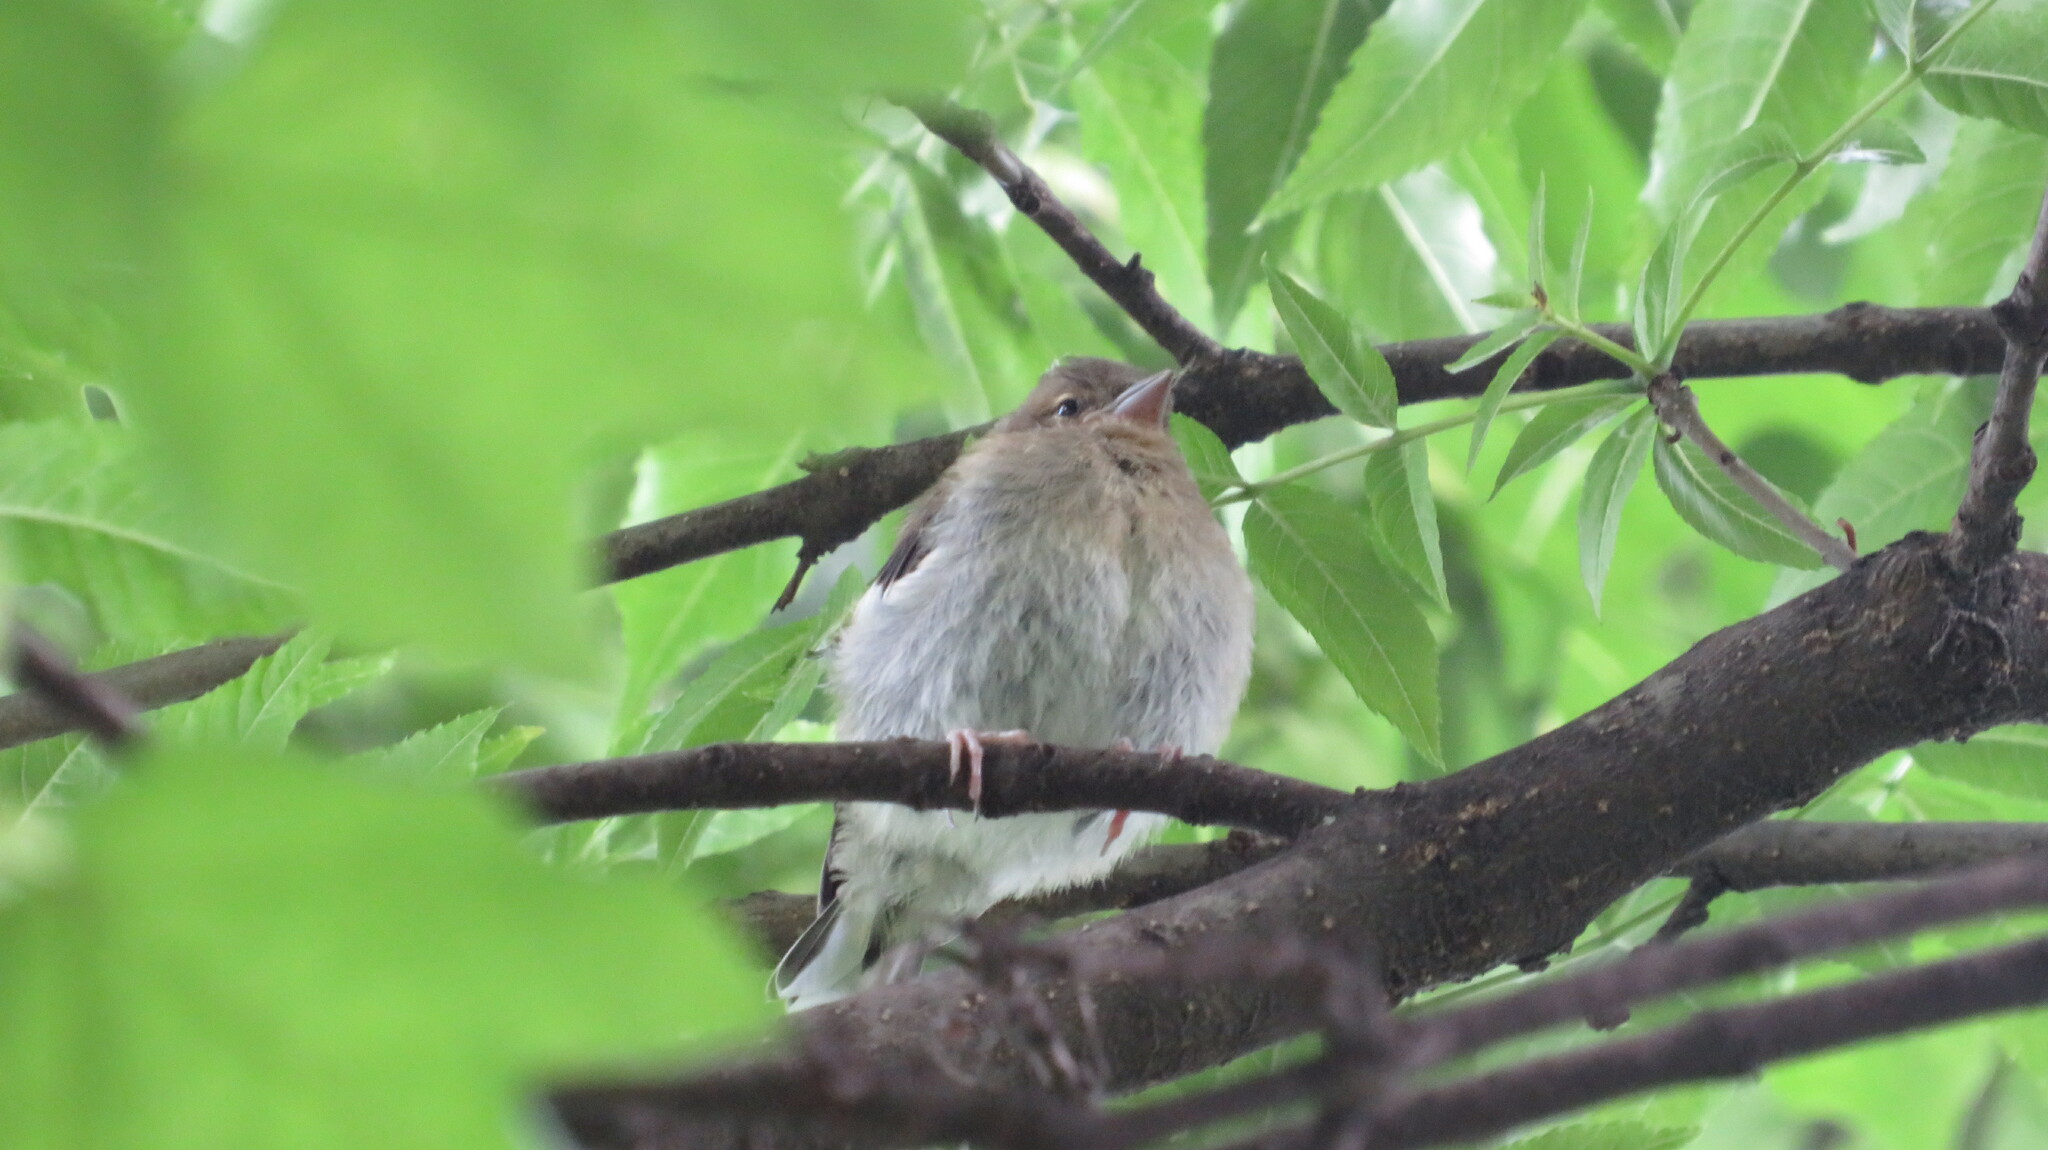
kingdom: Animalia
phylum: Chordata
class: Aves
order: Passeriformes
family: Fringillidae
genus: Fringilla
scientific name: Fringilla coelebs
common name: Common chaffinch
